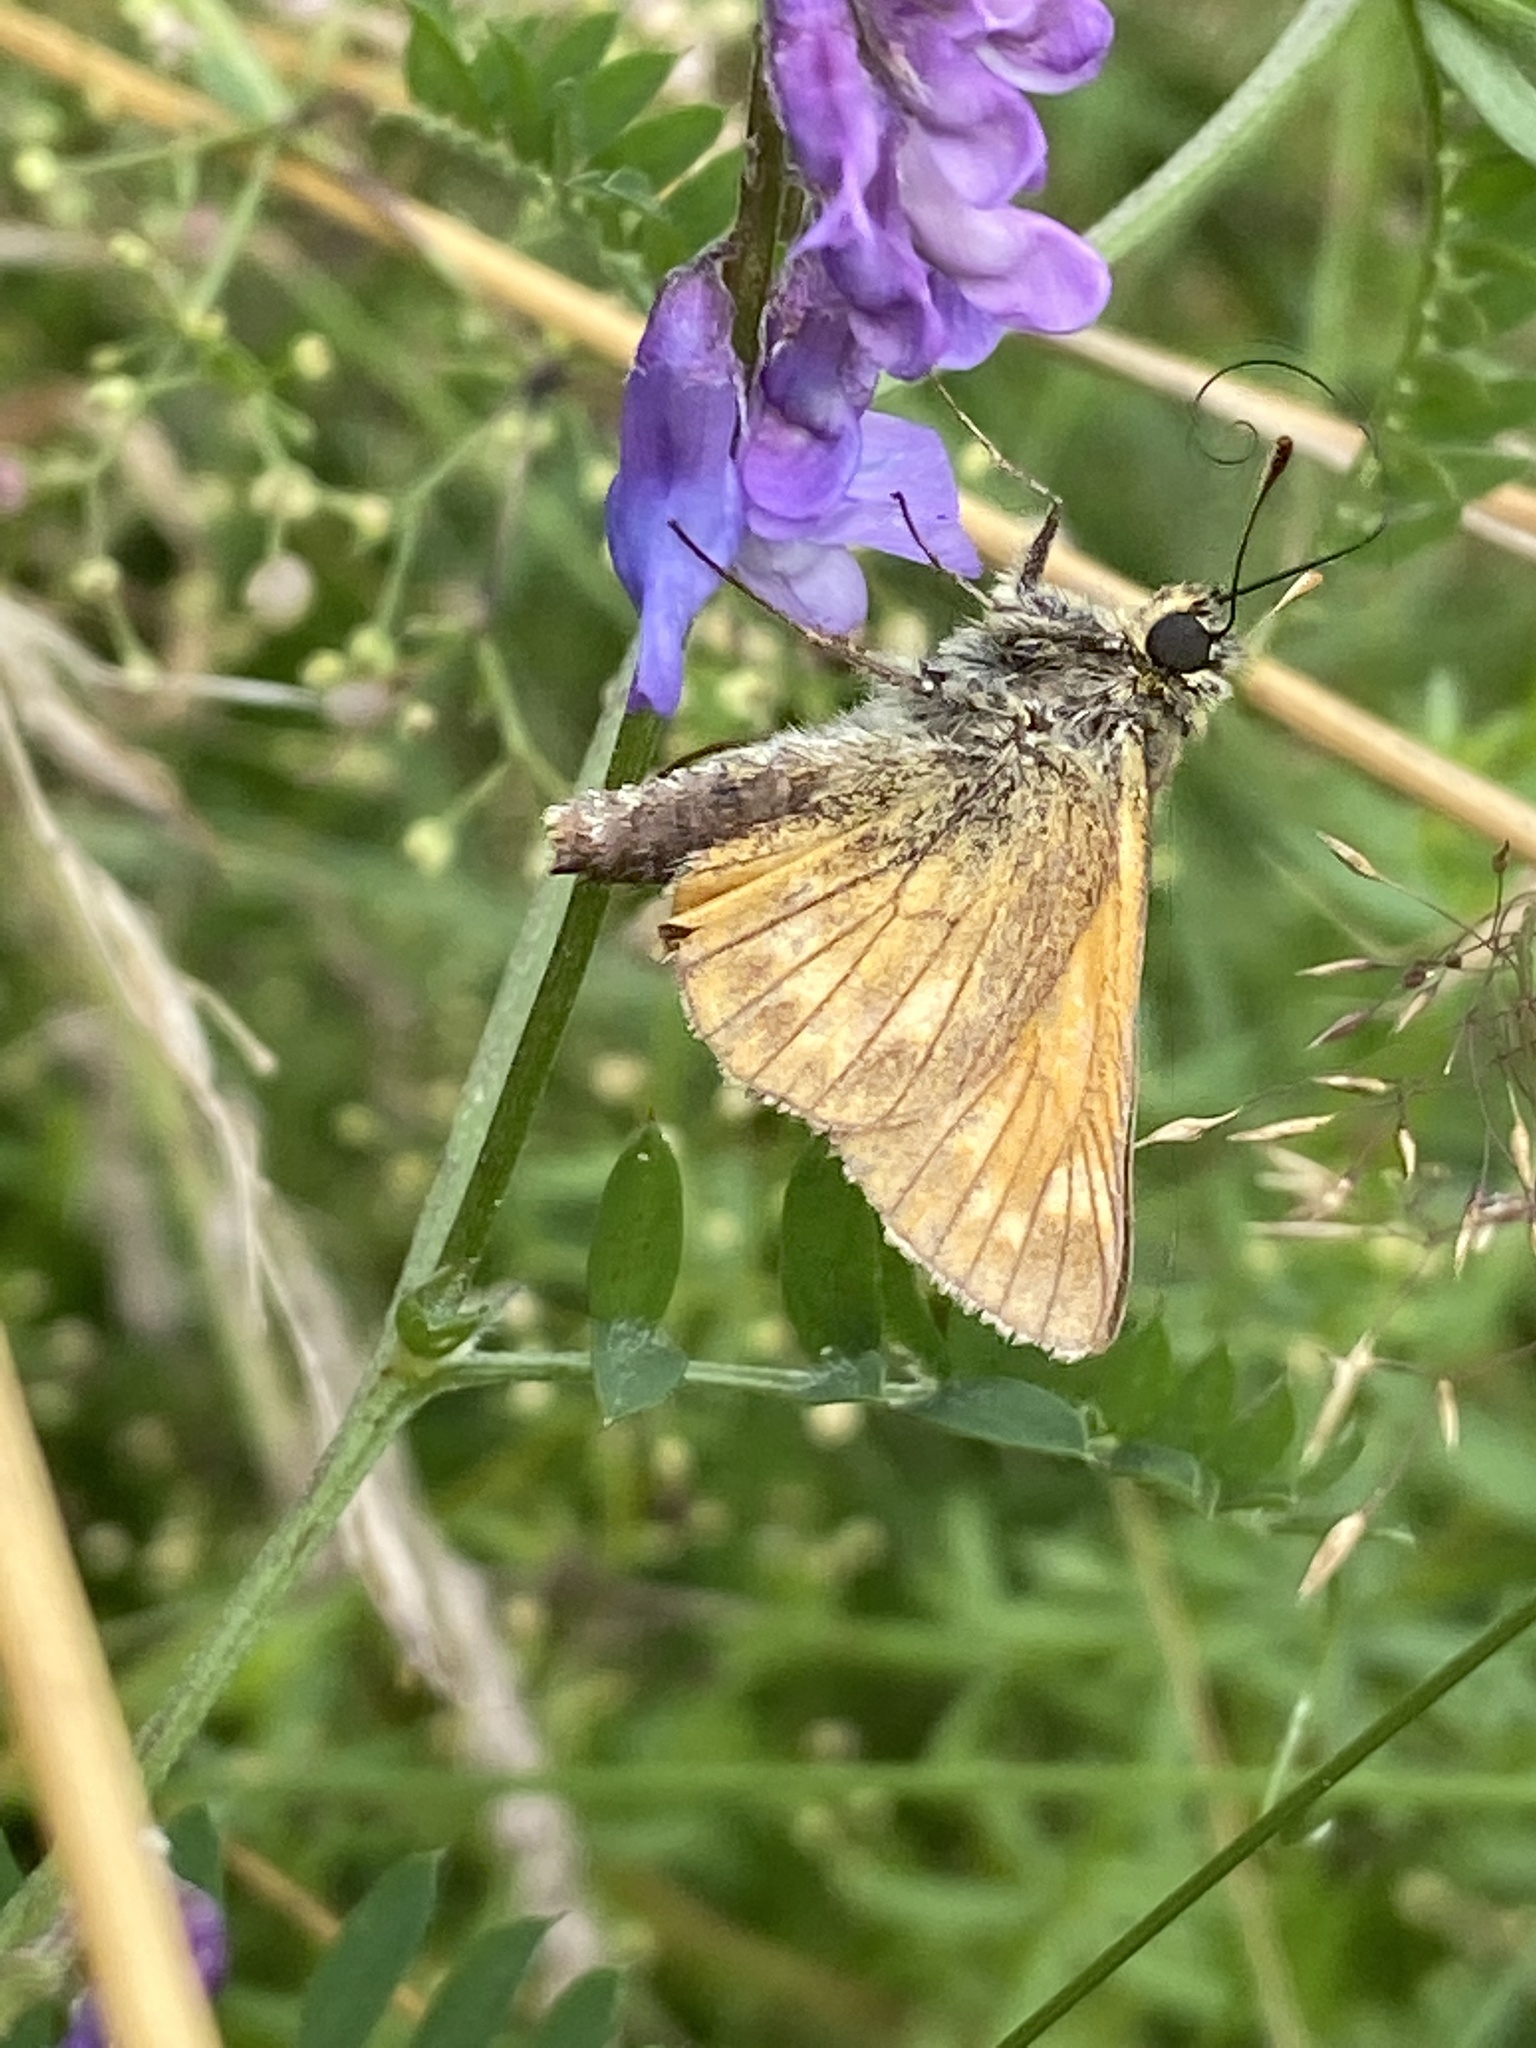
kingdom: Animalia
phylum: Arthropoda
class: Insecta
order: Lepidoptera
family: Hesperiidae
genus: Ochlodes
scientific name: Ochlodes venata
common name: Large skipper
